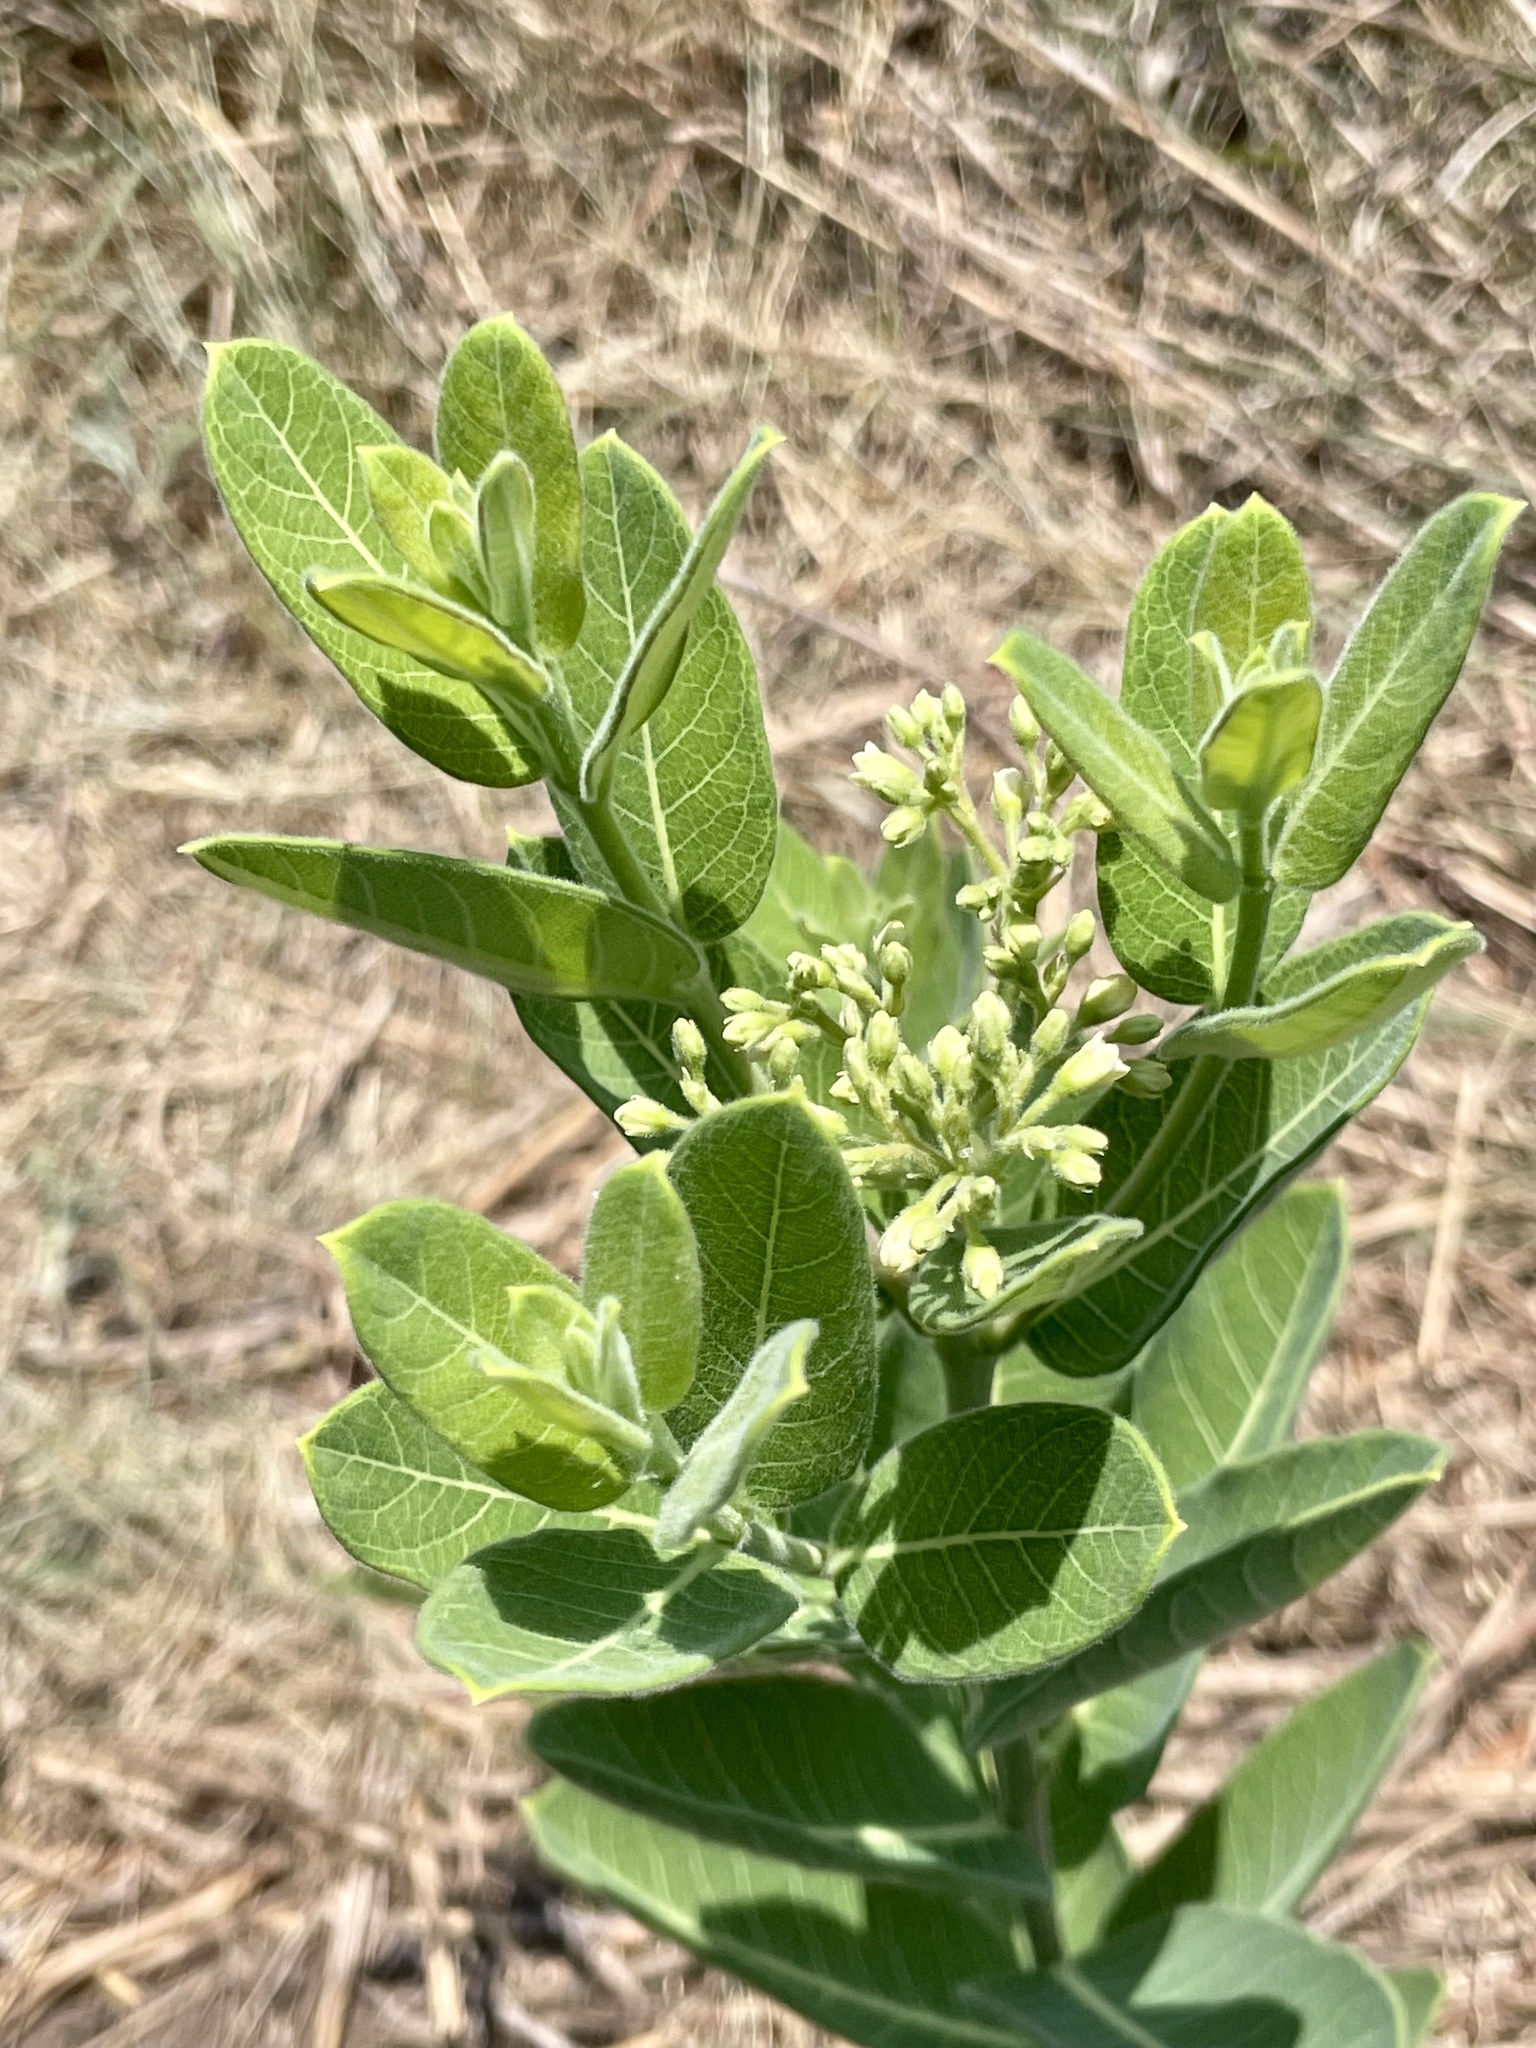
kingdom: Plantae
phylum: Tracheophyta
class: Magnoliopsida
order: Gentianales
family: Apocynaceae
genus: Apocynum
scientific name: Apocynum cannabinum
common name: Hemp dogbane
